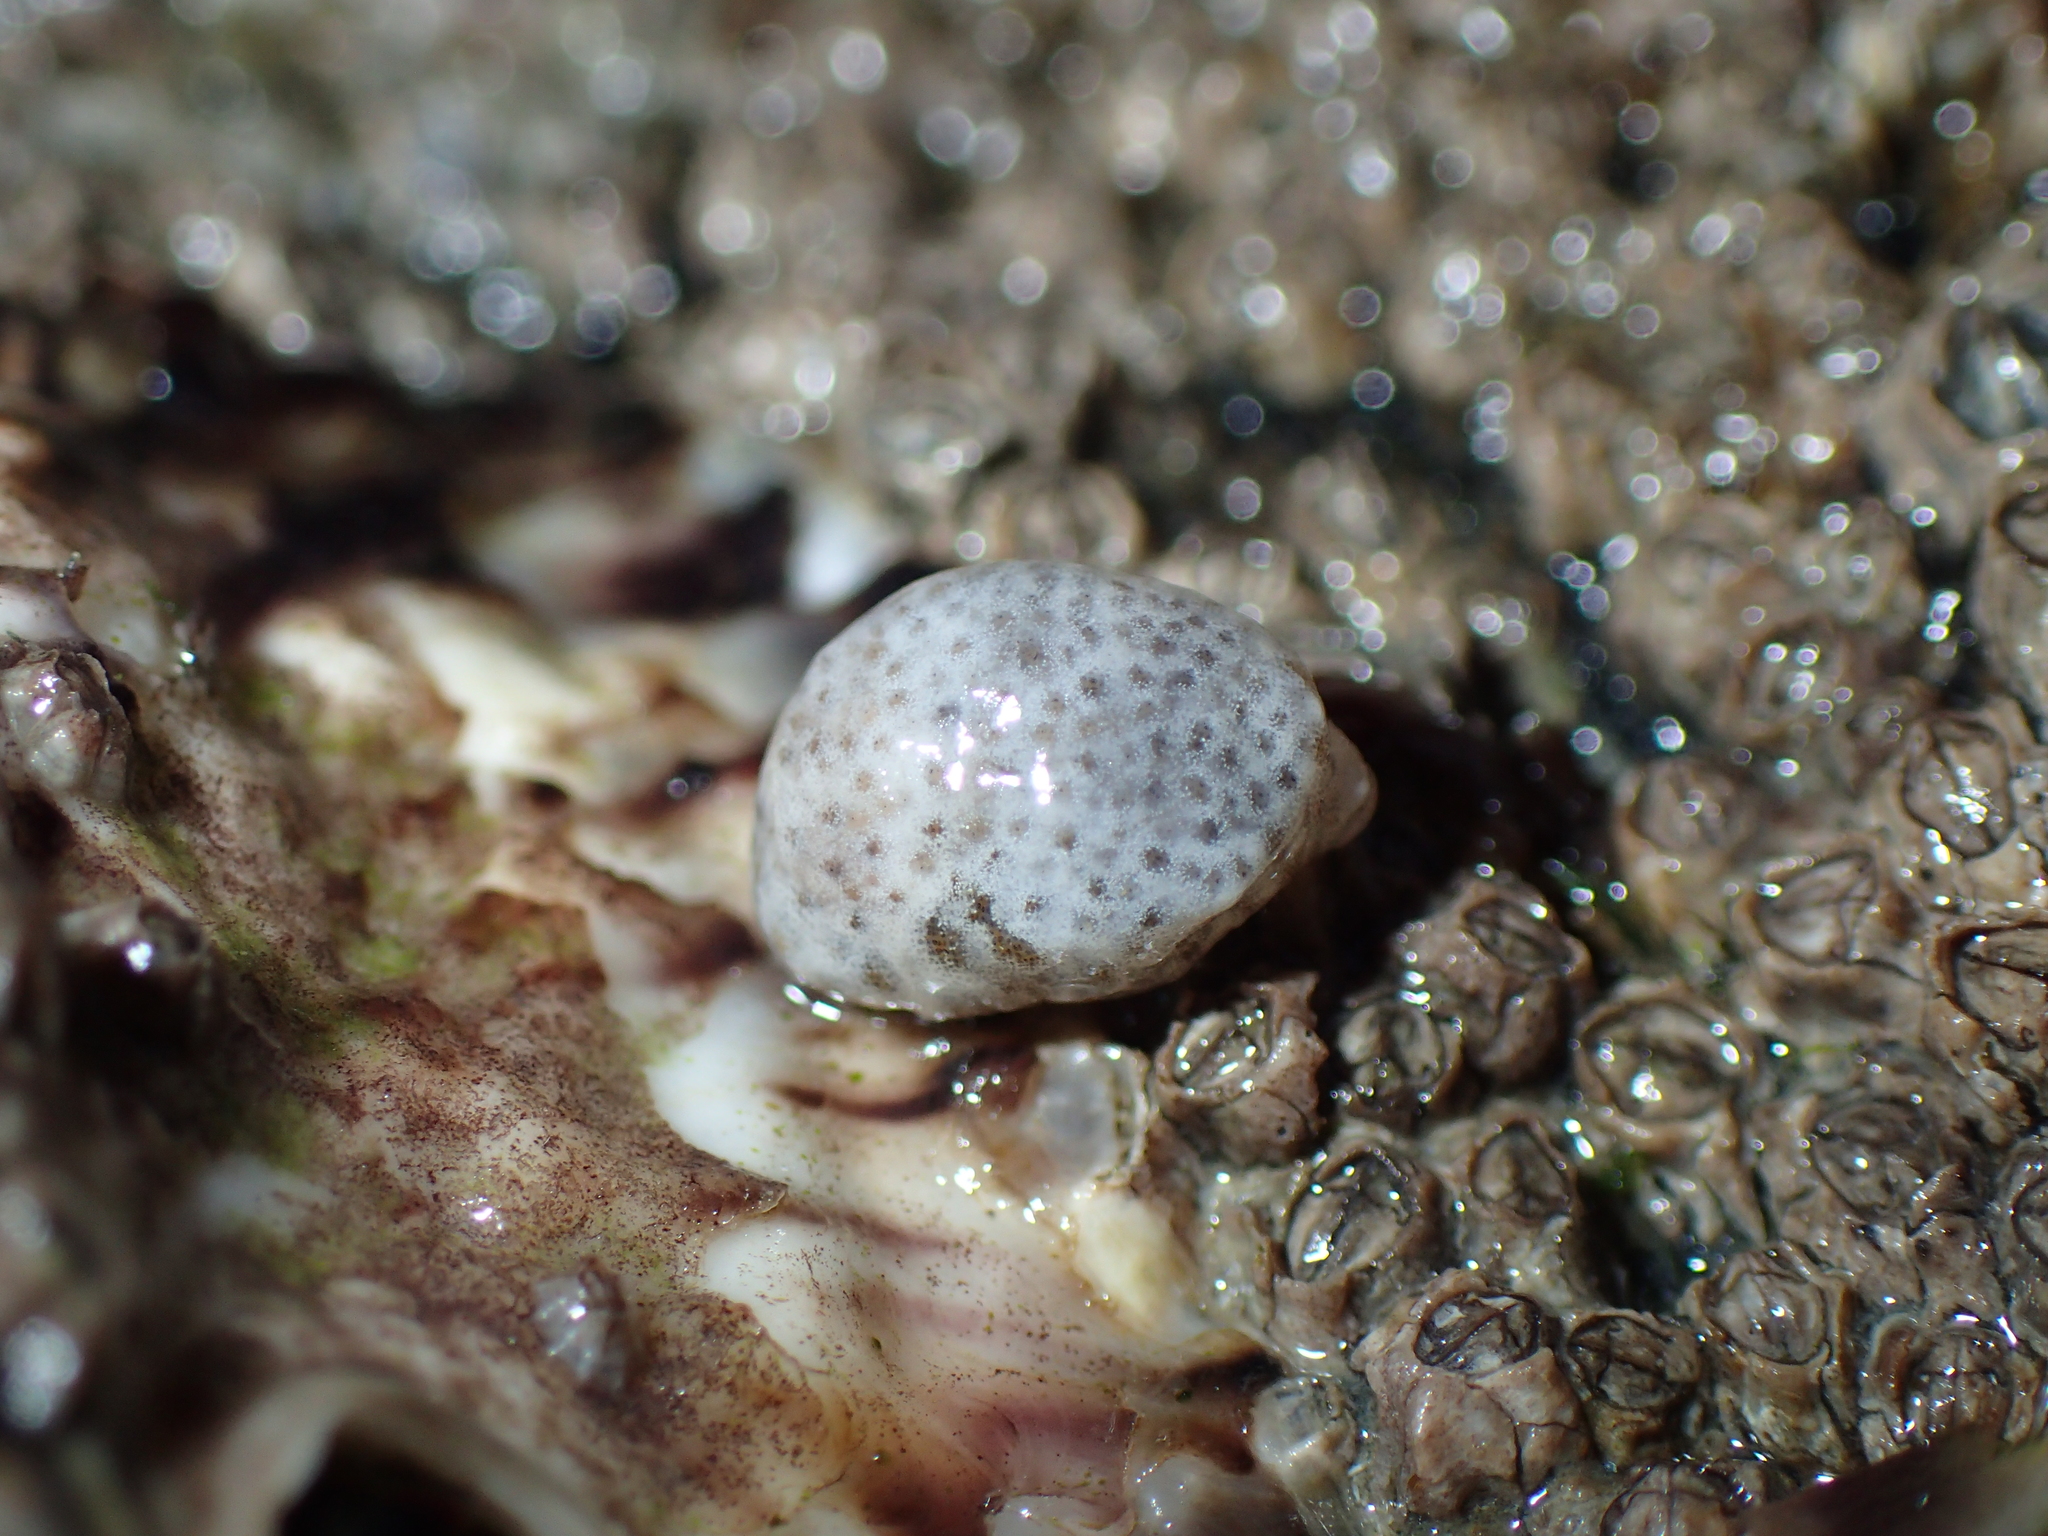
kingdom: Animalia
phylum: Mollusca
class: Gastropoda
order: Littorinimorpha
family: Velutinidae
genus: Lamellaria
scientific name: Lamellaria latens
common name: Concealed lamellaria
